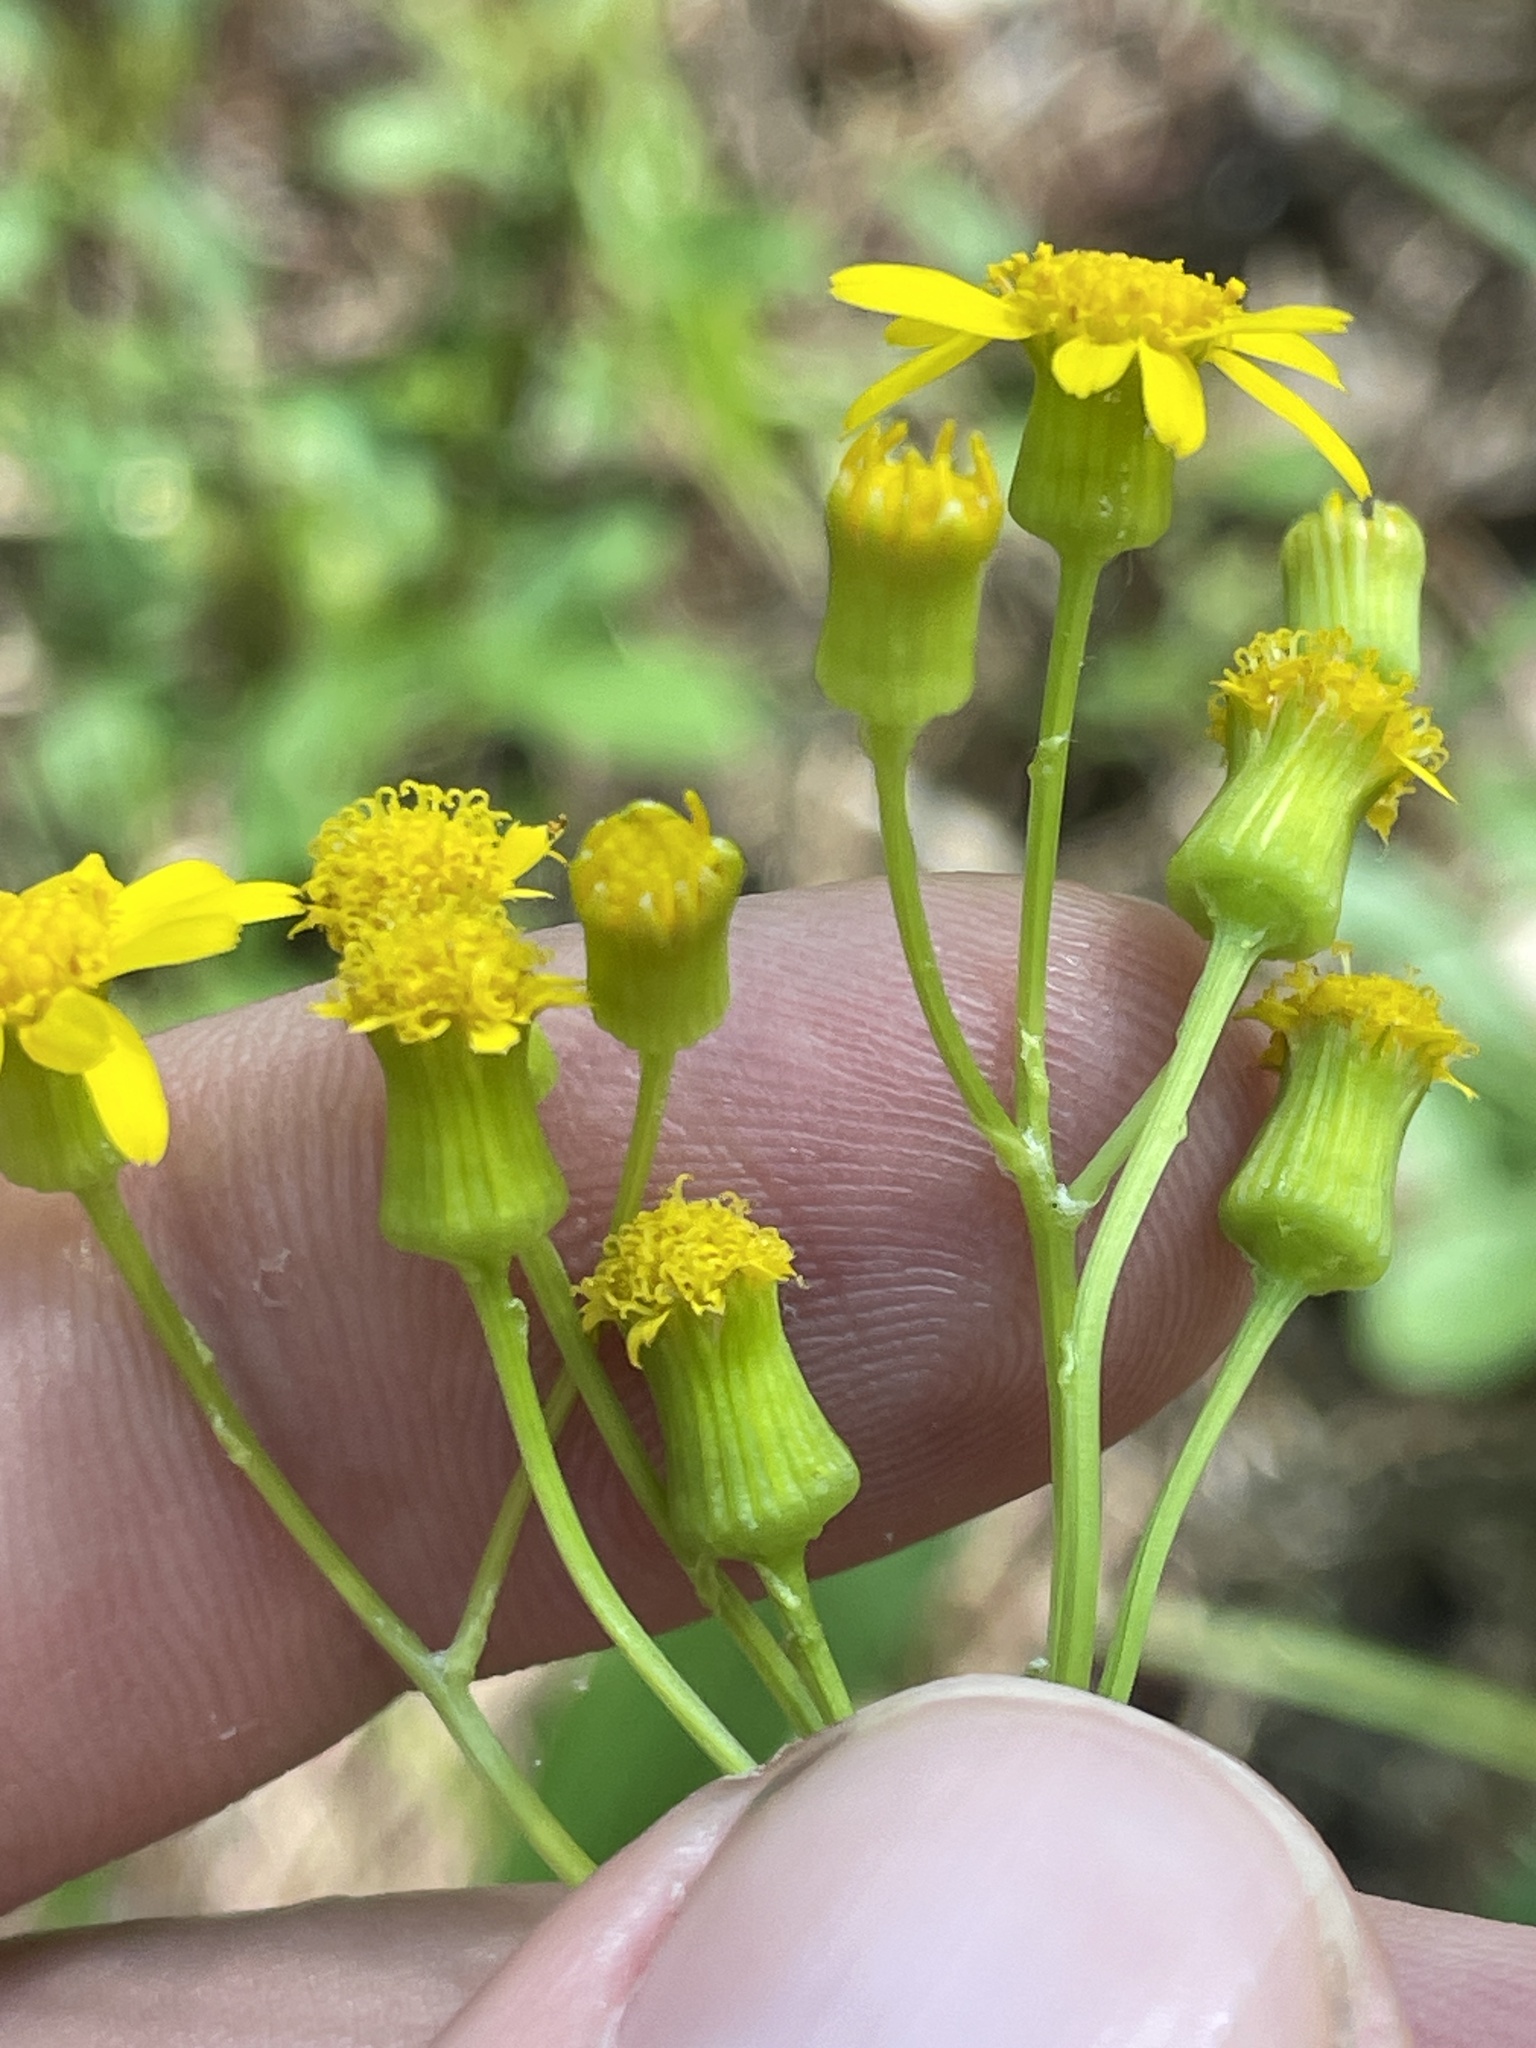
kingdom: Plantae
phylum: Tracheophyta
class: Magnoliopsida
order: Asterales
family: Asteraceae
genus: Packera
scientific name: Packera anonyma
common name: Small ragwort
